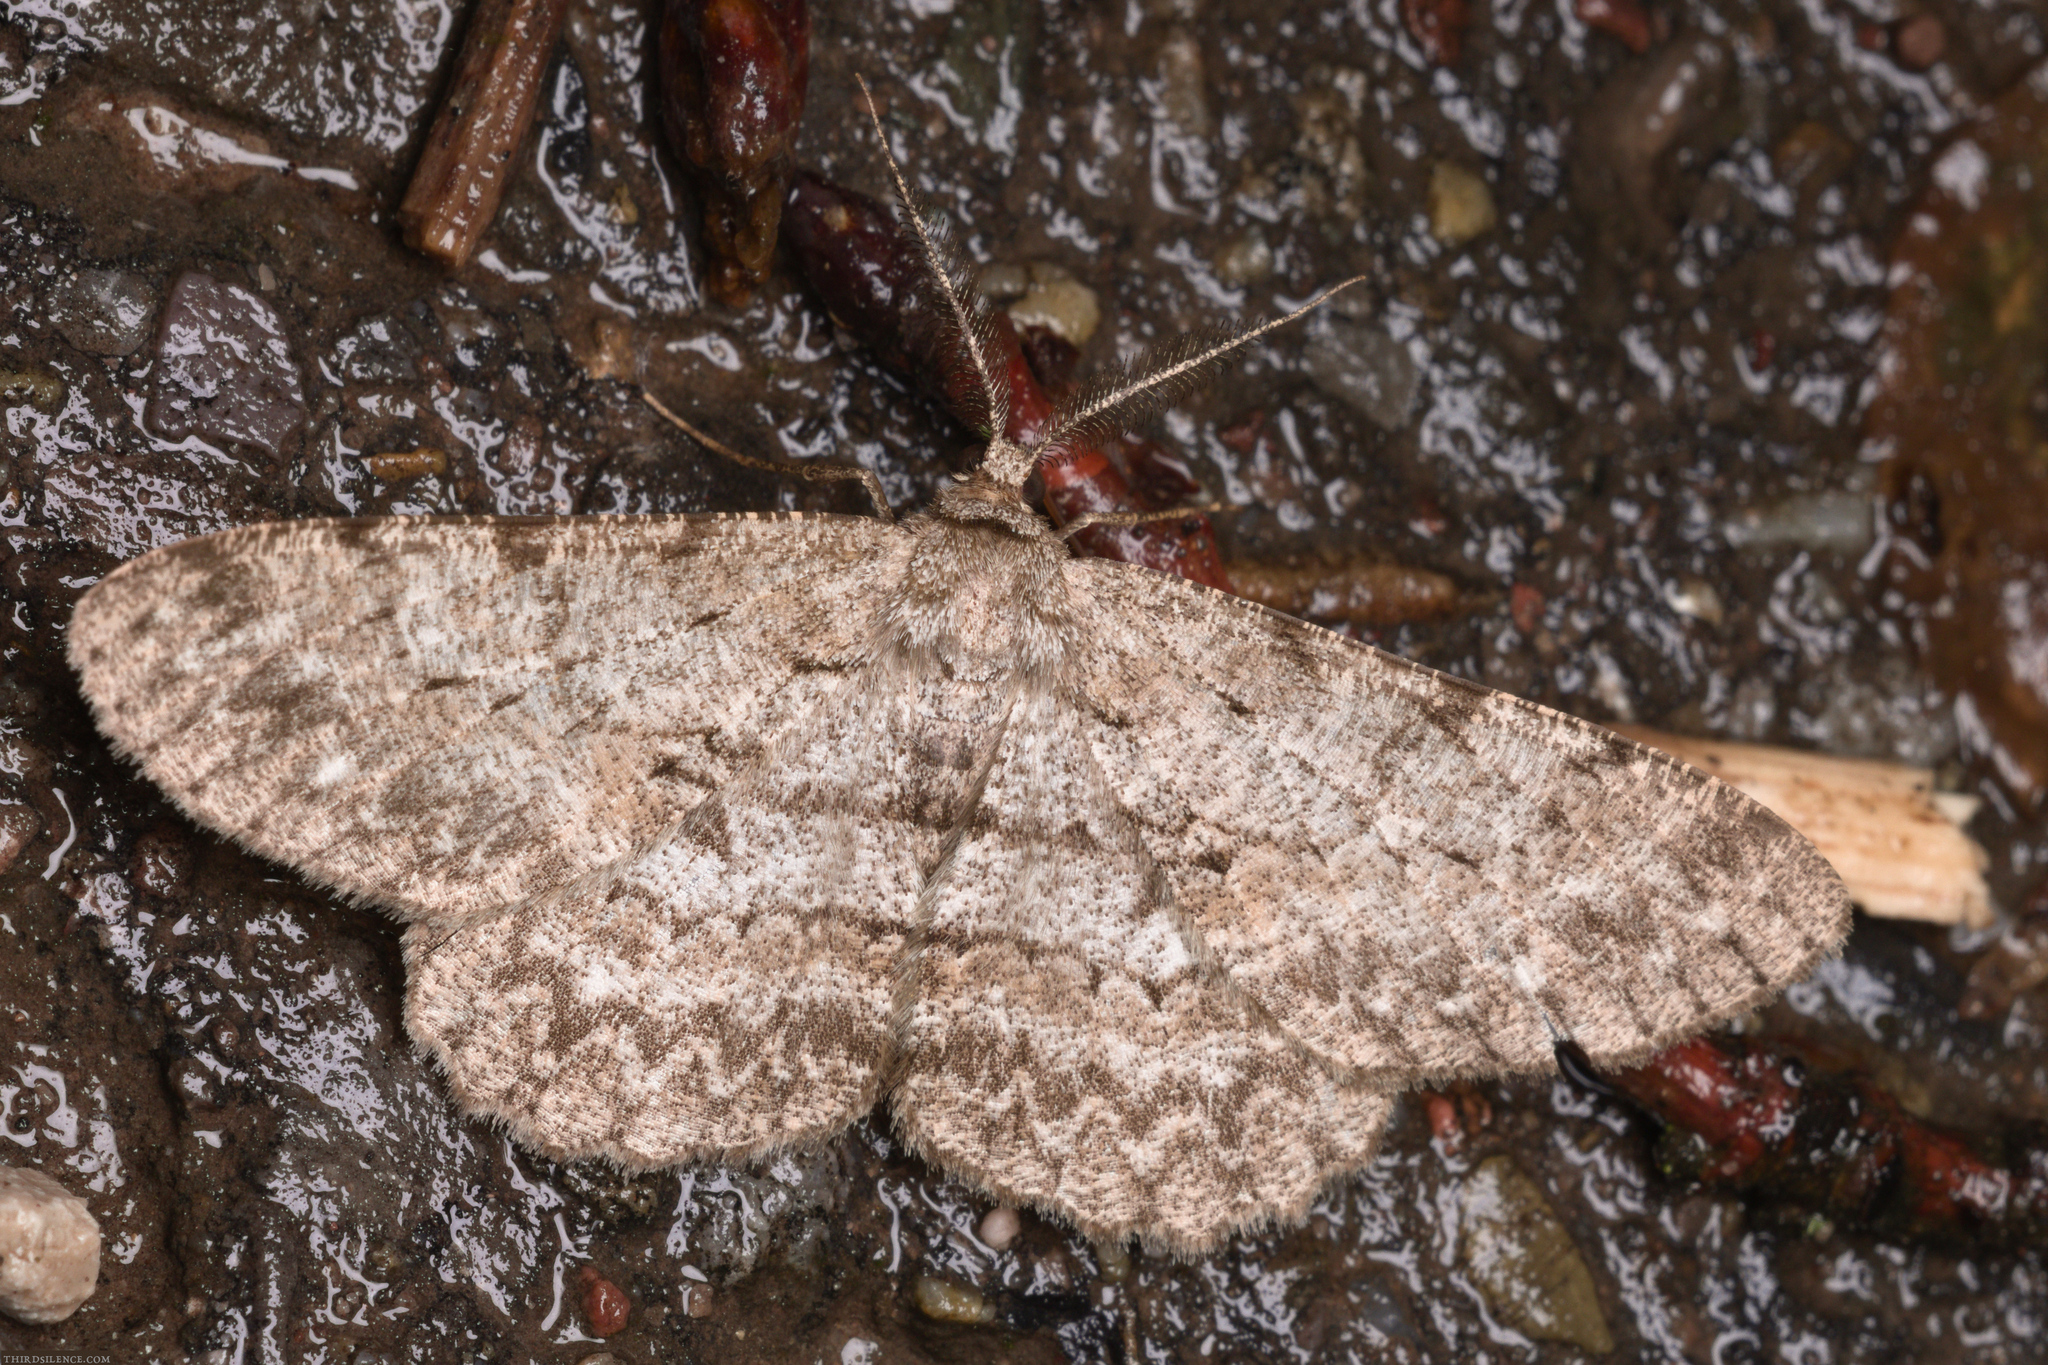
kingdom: Animalia
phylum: Arthropoda
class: Insecta
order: Lepidoptera
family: Geometridae
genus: Hypomecis
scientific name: Hypomecis punctinalis
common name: Pale oak beauty
